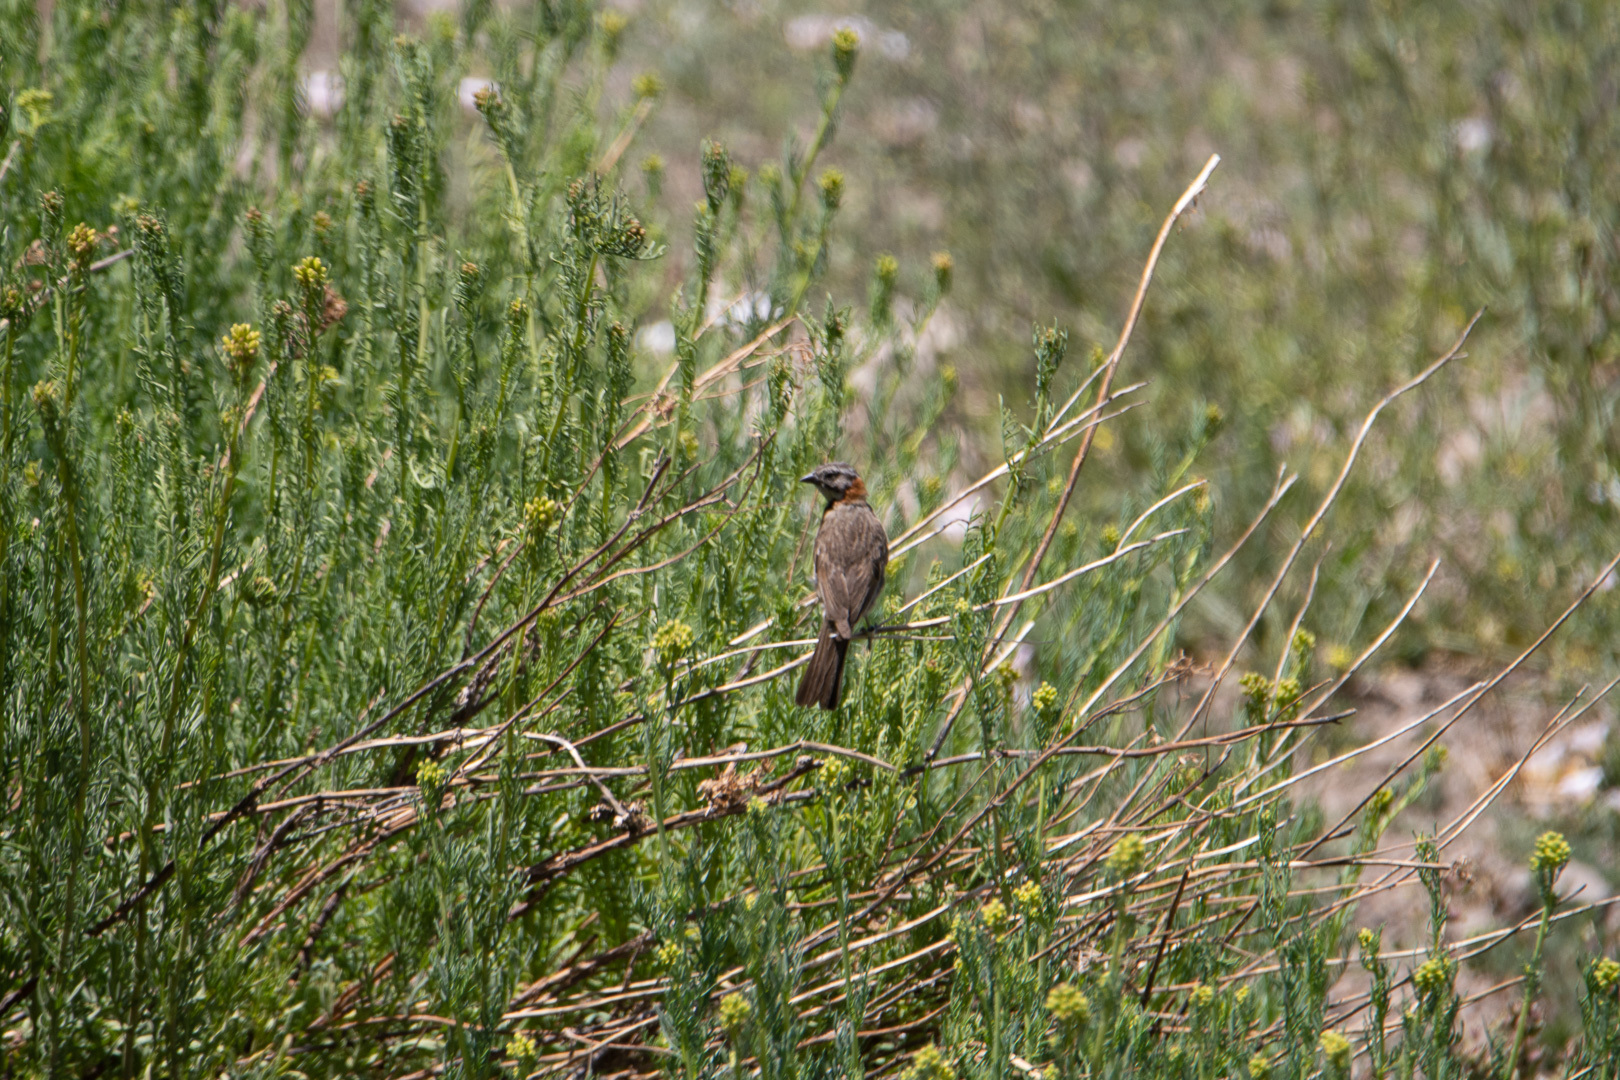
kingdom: Animalia
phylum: Chordata
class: Aves
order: Passeriformes
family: Passerellidae
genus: Zonotrichia
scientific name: Zonotrichia capensis
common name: Rufous-collared sparrow
